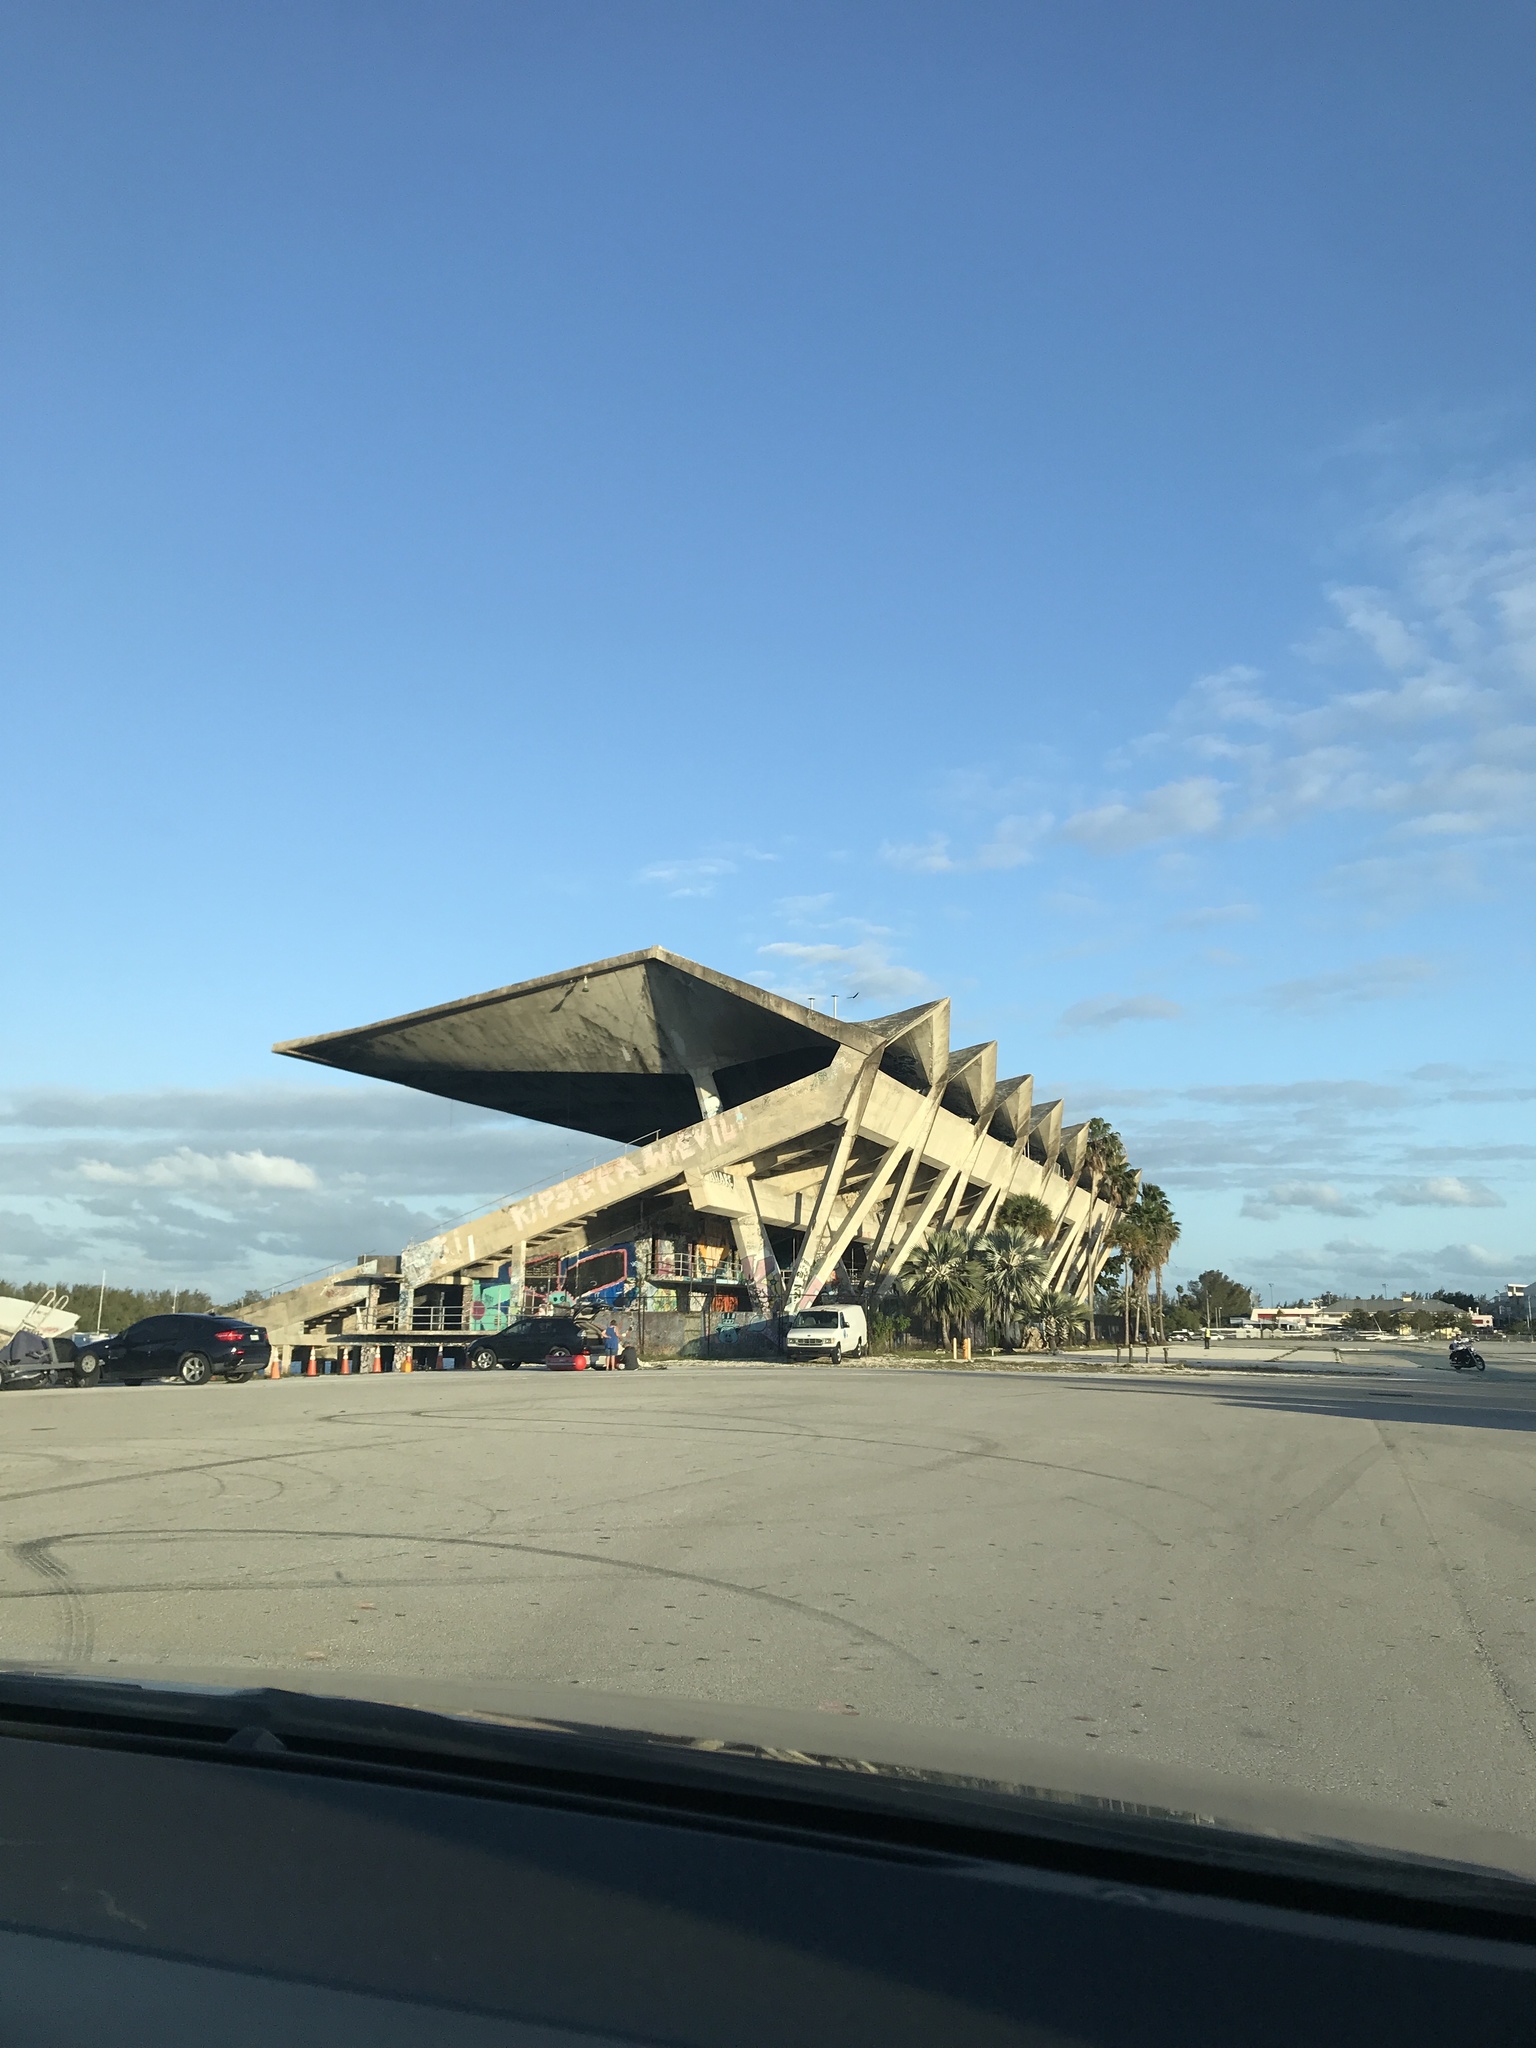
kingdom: Animalia
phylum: Chordata
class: Aves
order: Accipitriformes
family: Cathartidae
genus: Cathartes
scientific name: Cathartes aura
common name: Turkey vulture
